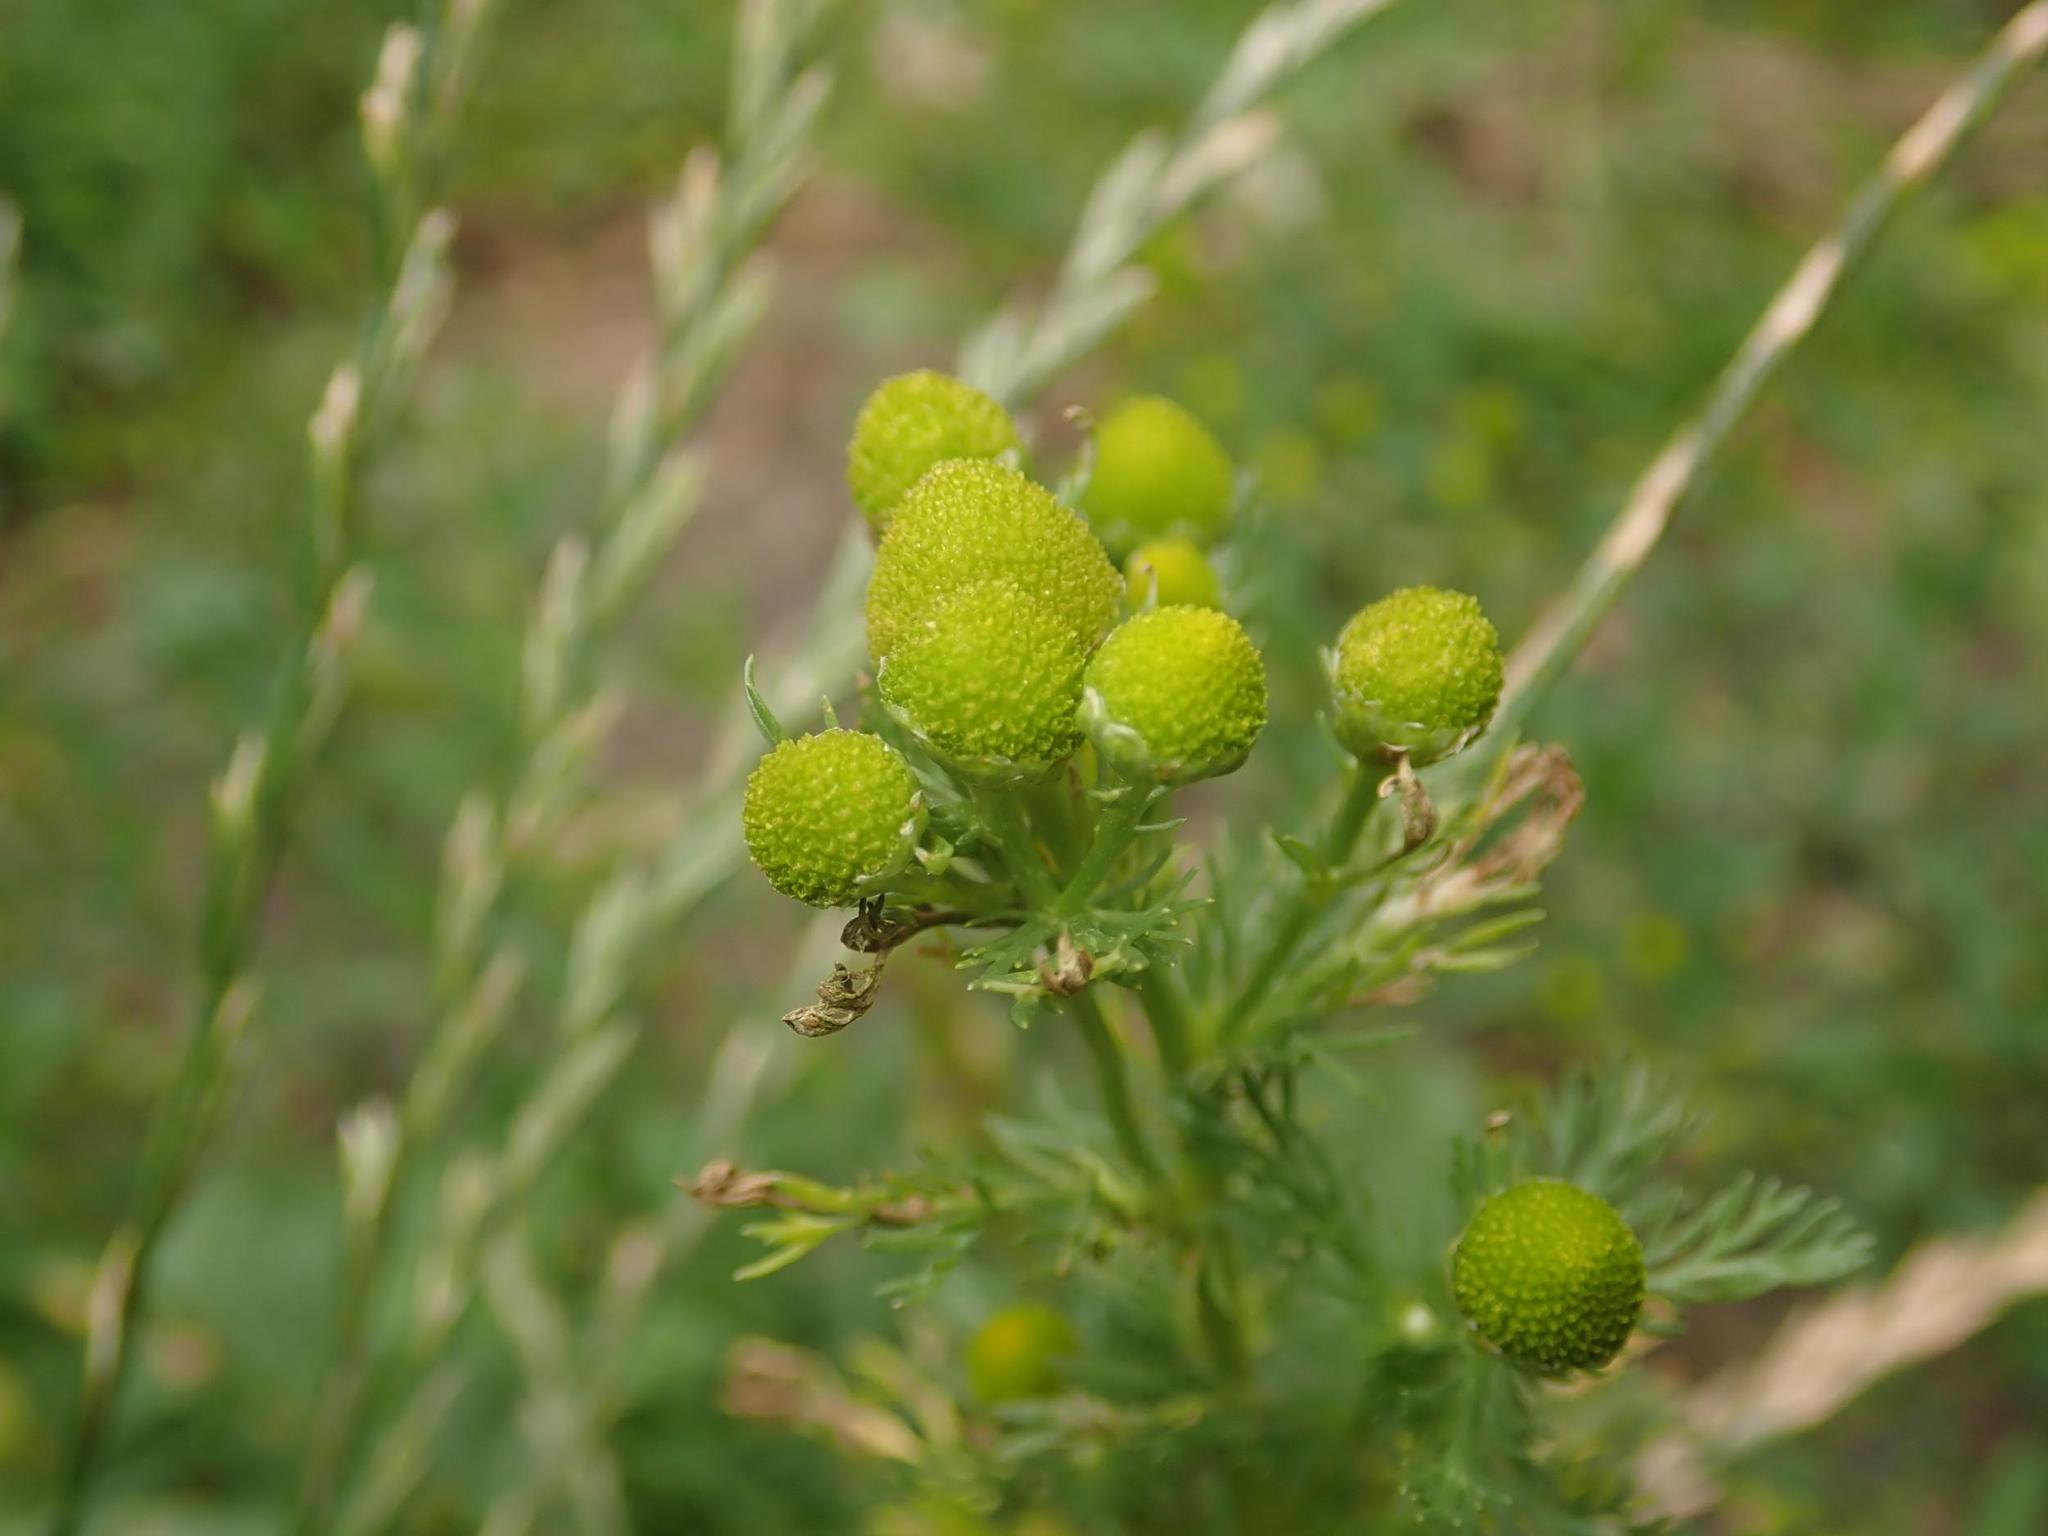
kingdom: Plantae
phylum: Tracheophyta
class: Magnoliopsida
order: Asterales
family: Asteraceae
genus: Matricaria
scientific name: Matricaria discoidea
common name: Disc mayweed
